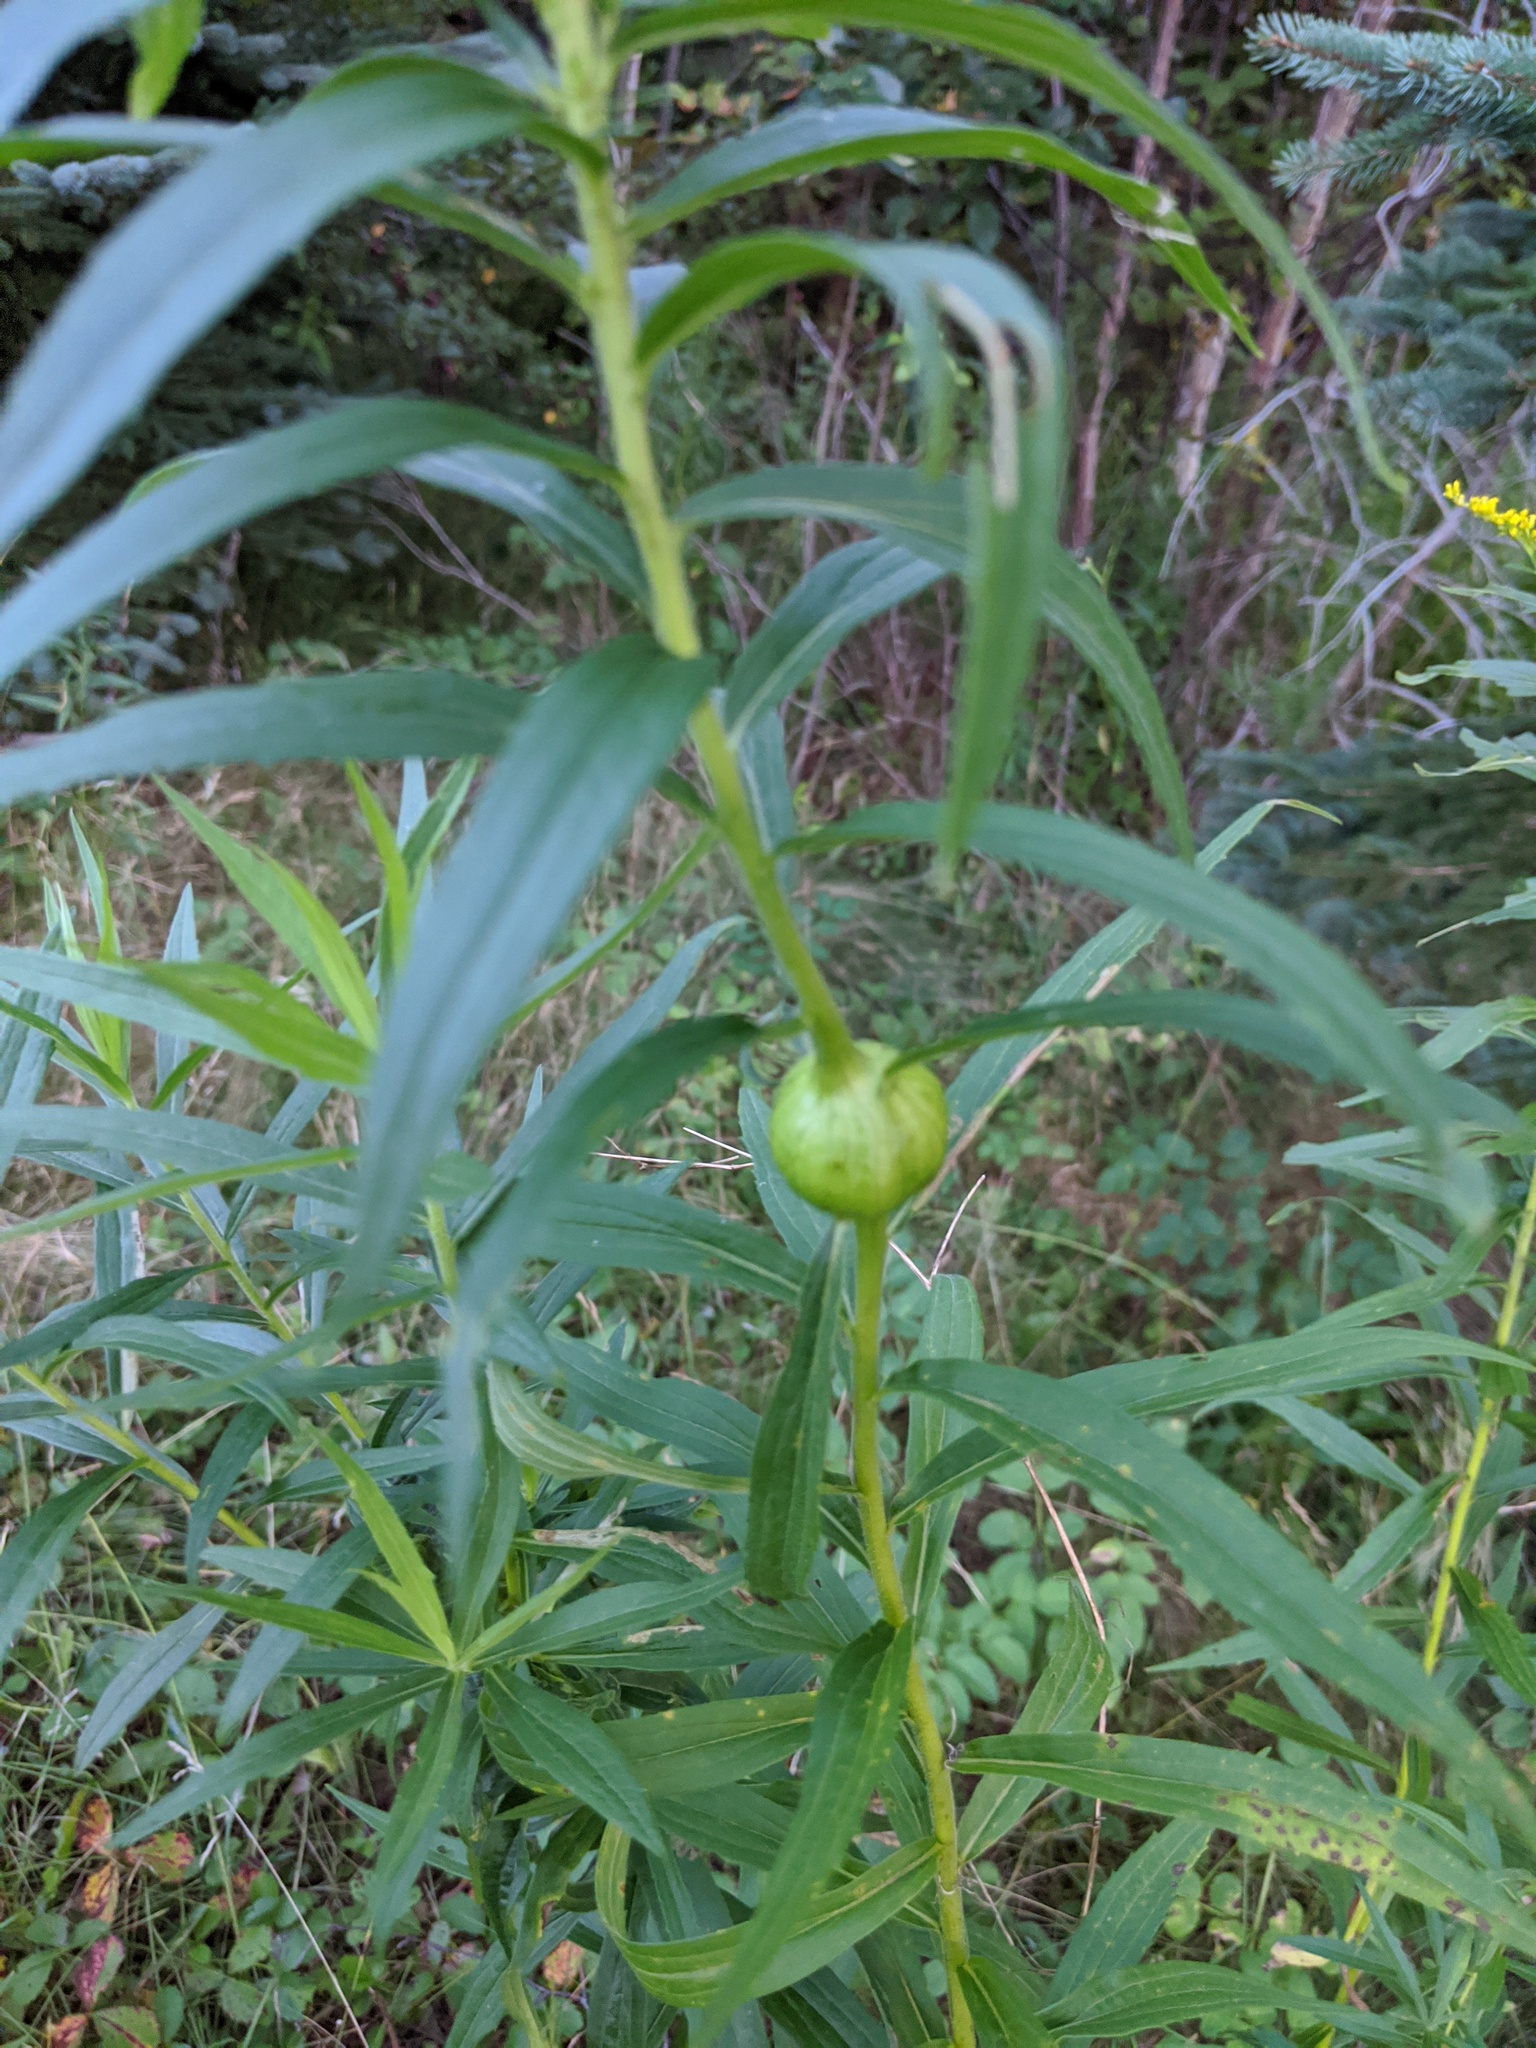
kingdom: Animalia
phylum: Arthropoda
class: Insecta
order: Diptera
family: Tephritidae
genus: Eurosta
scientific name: Eurosta solidaginis
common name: Goldenrod gall fly
